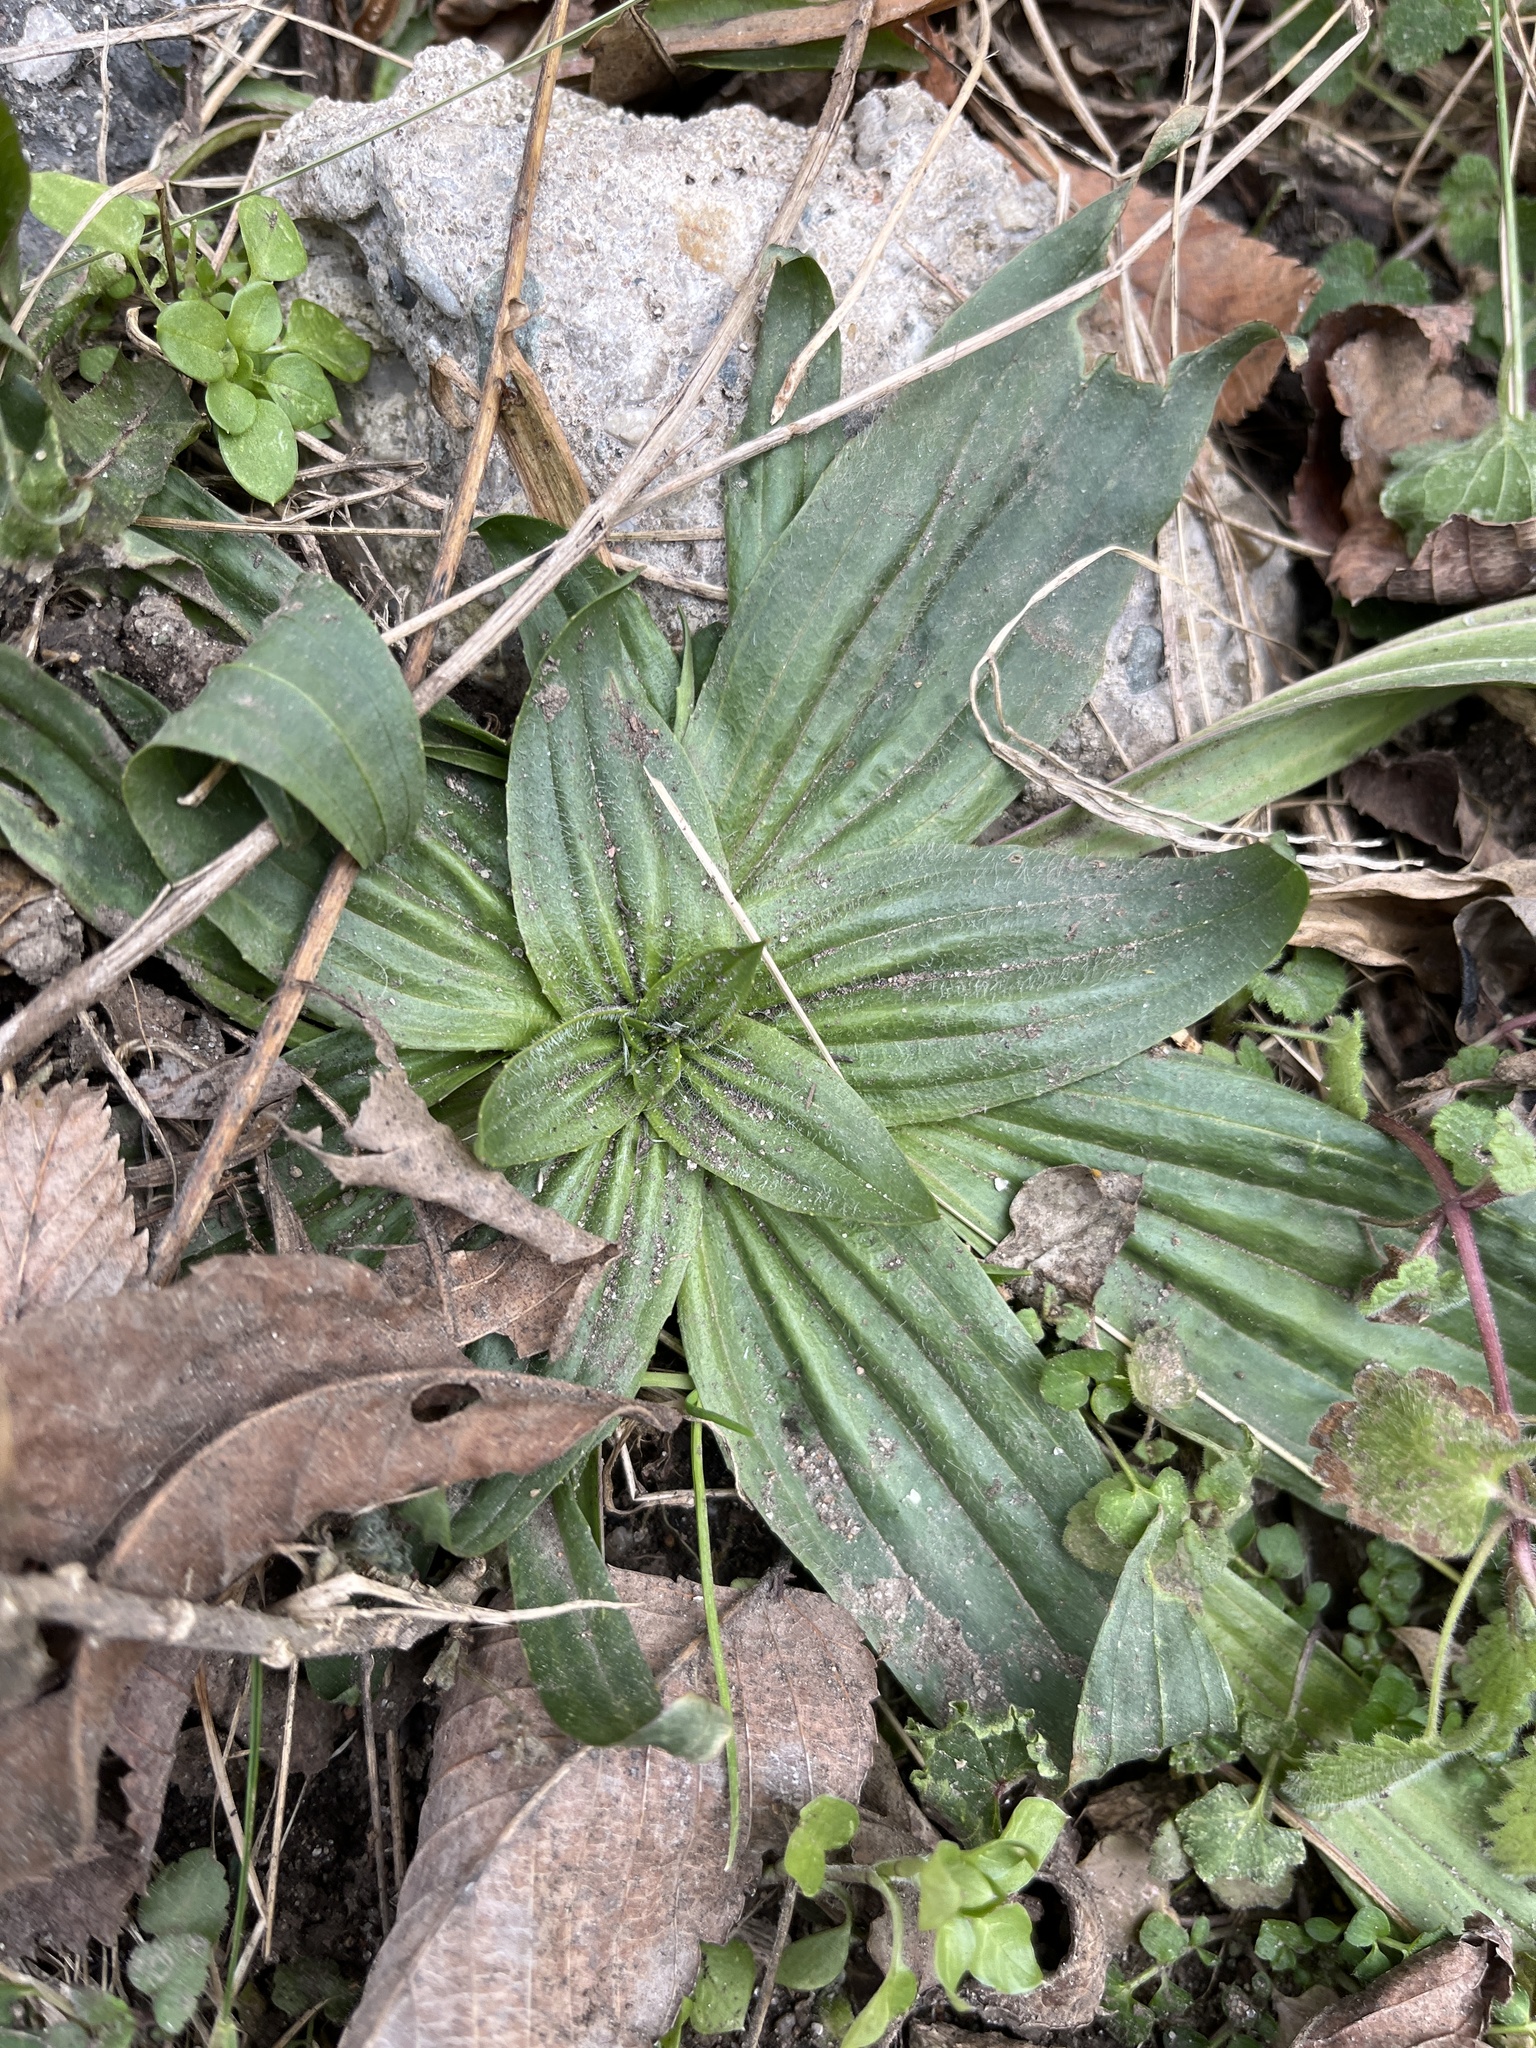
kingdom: Plantae
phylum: Tracheophyta
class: Magnoliopsida
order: Lamiales
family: Plantaginaceae
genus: Plantago
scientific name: Plantago lanceolata
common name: Ribwort plantain
